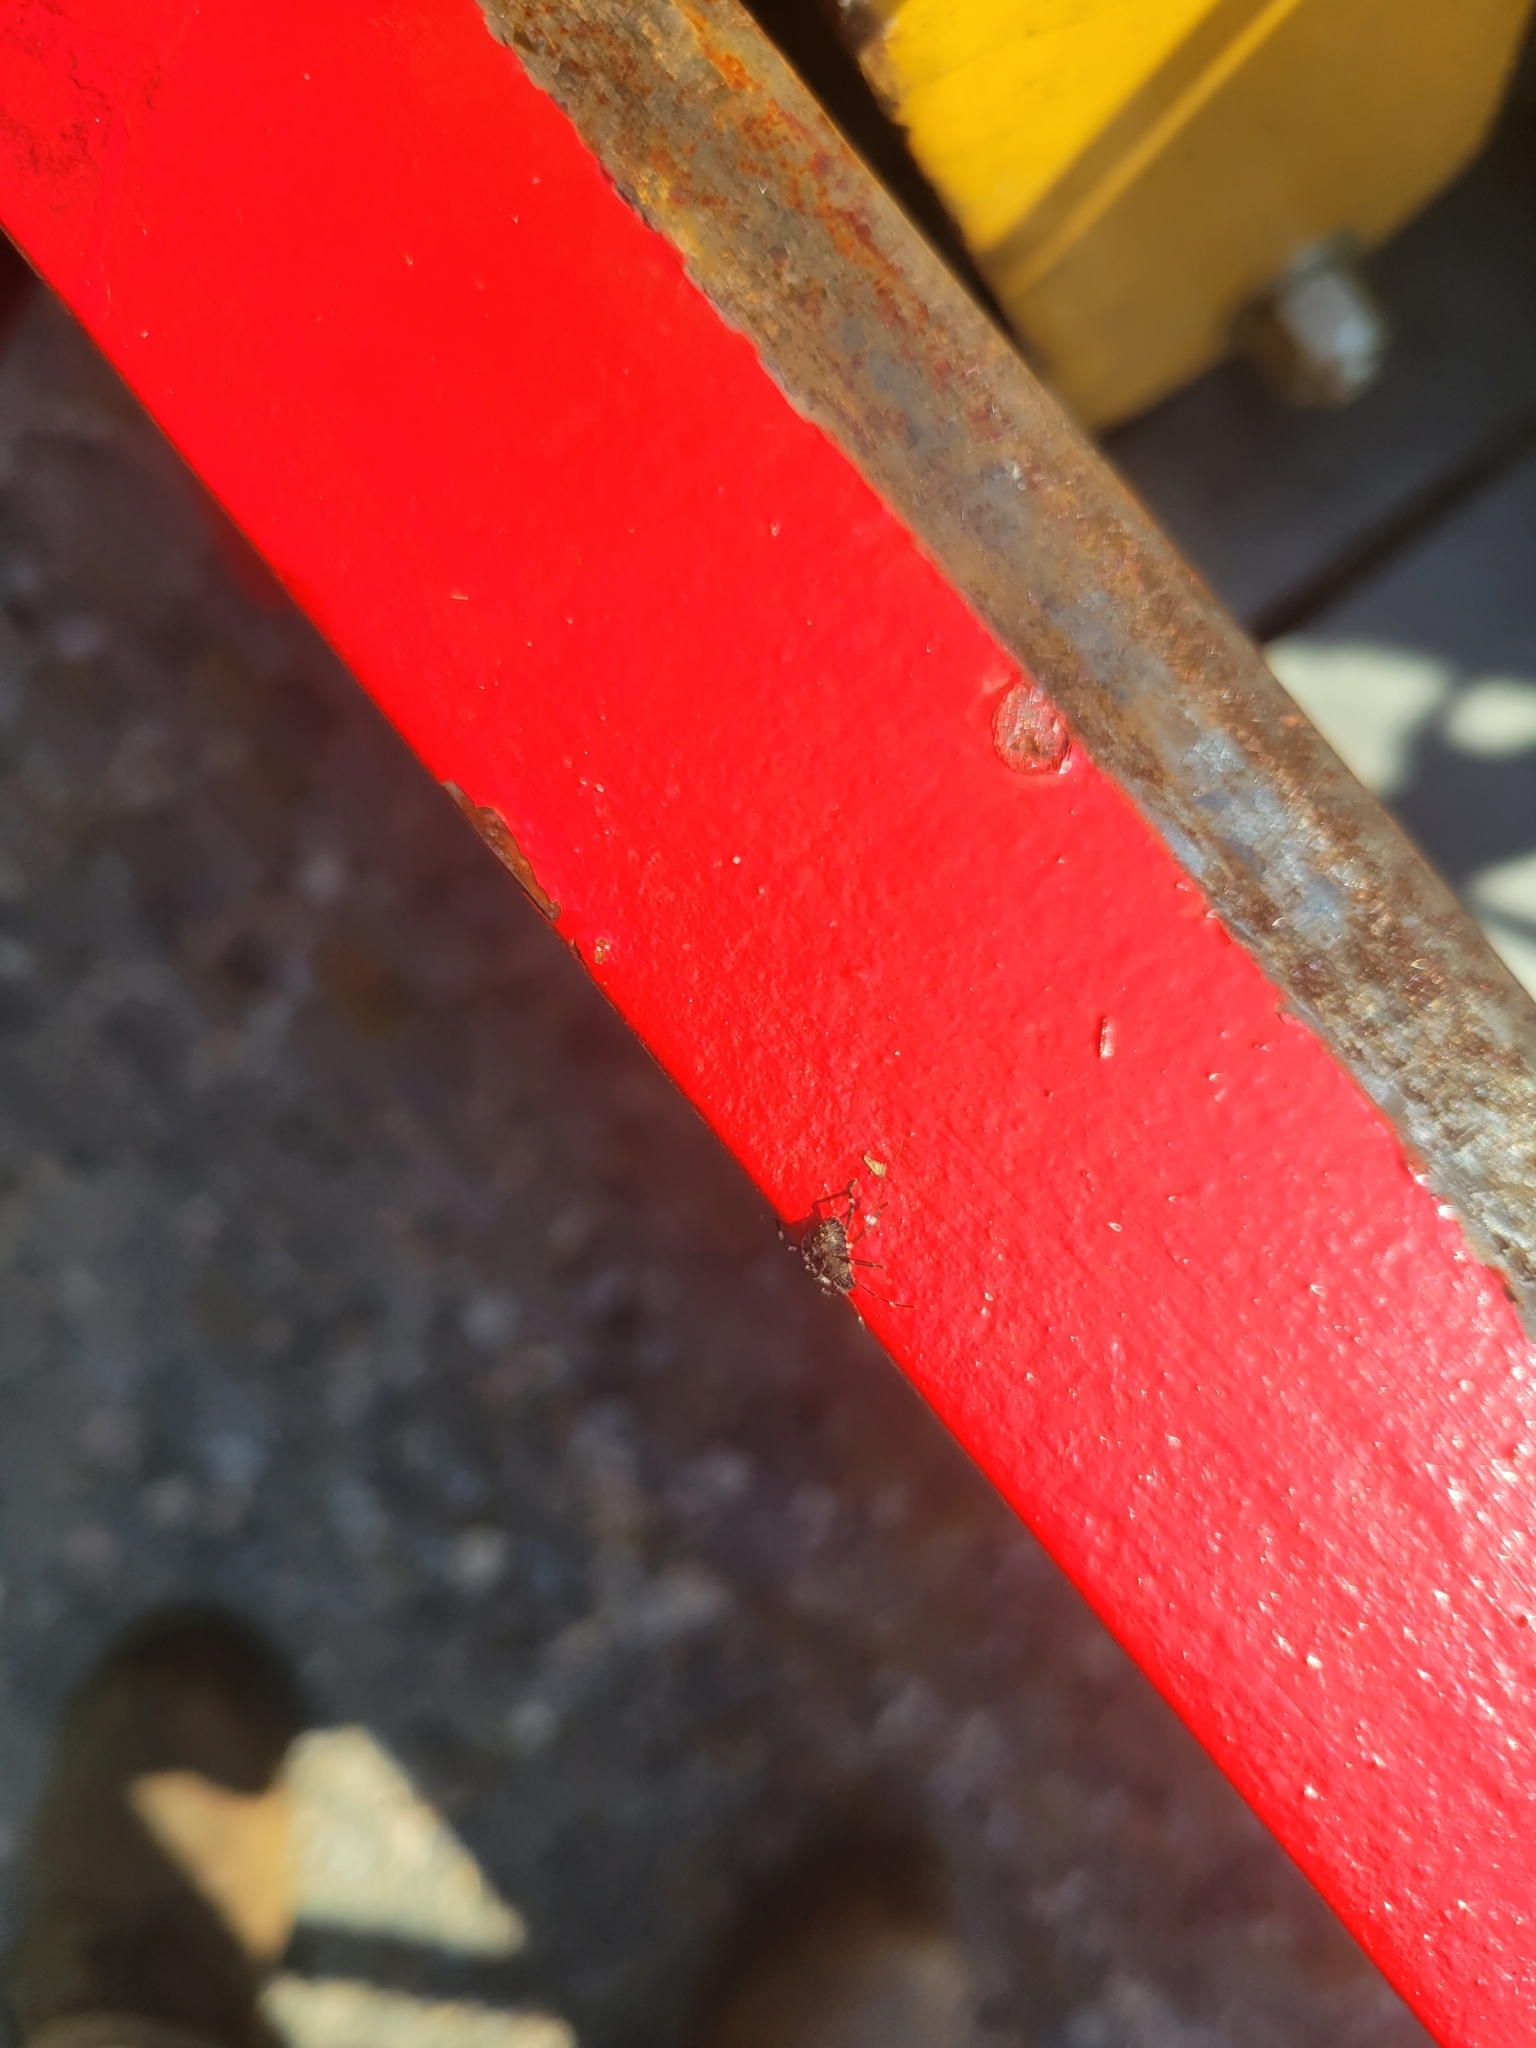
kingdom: Animalia
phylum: Arthropoda
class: Insecta
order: Hemiptera
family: Pentatomidae
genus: Halyomorpha
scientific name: Halyomorpha halys
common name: Brown marmorated stink bug
